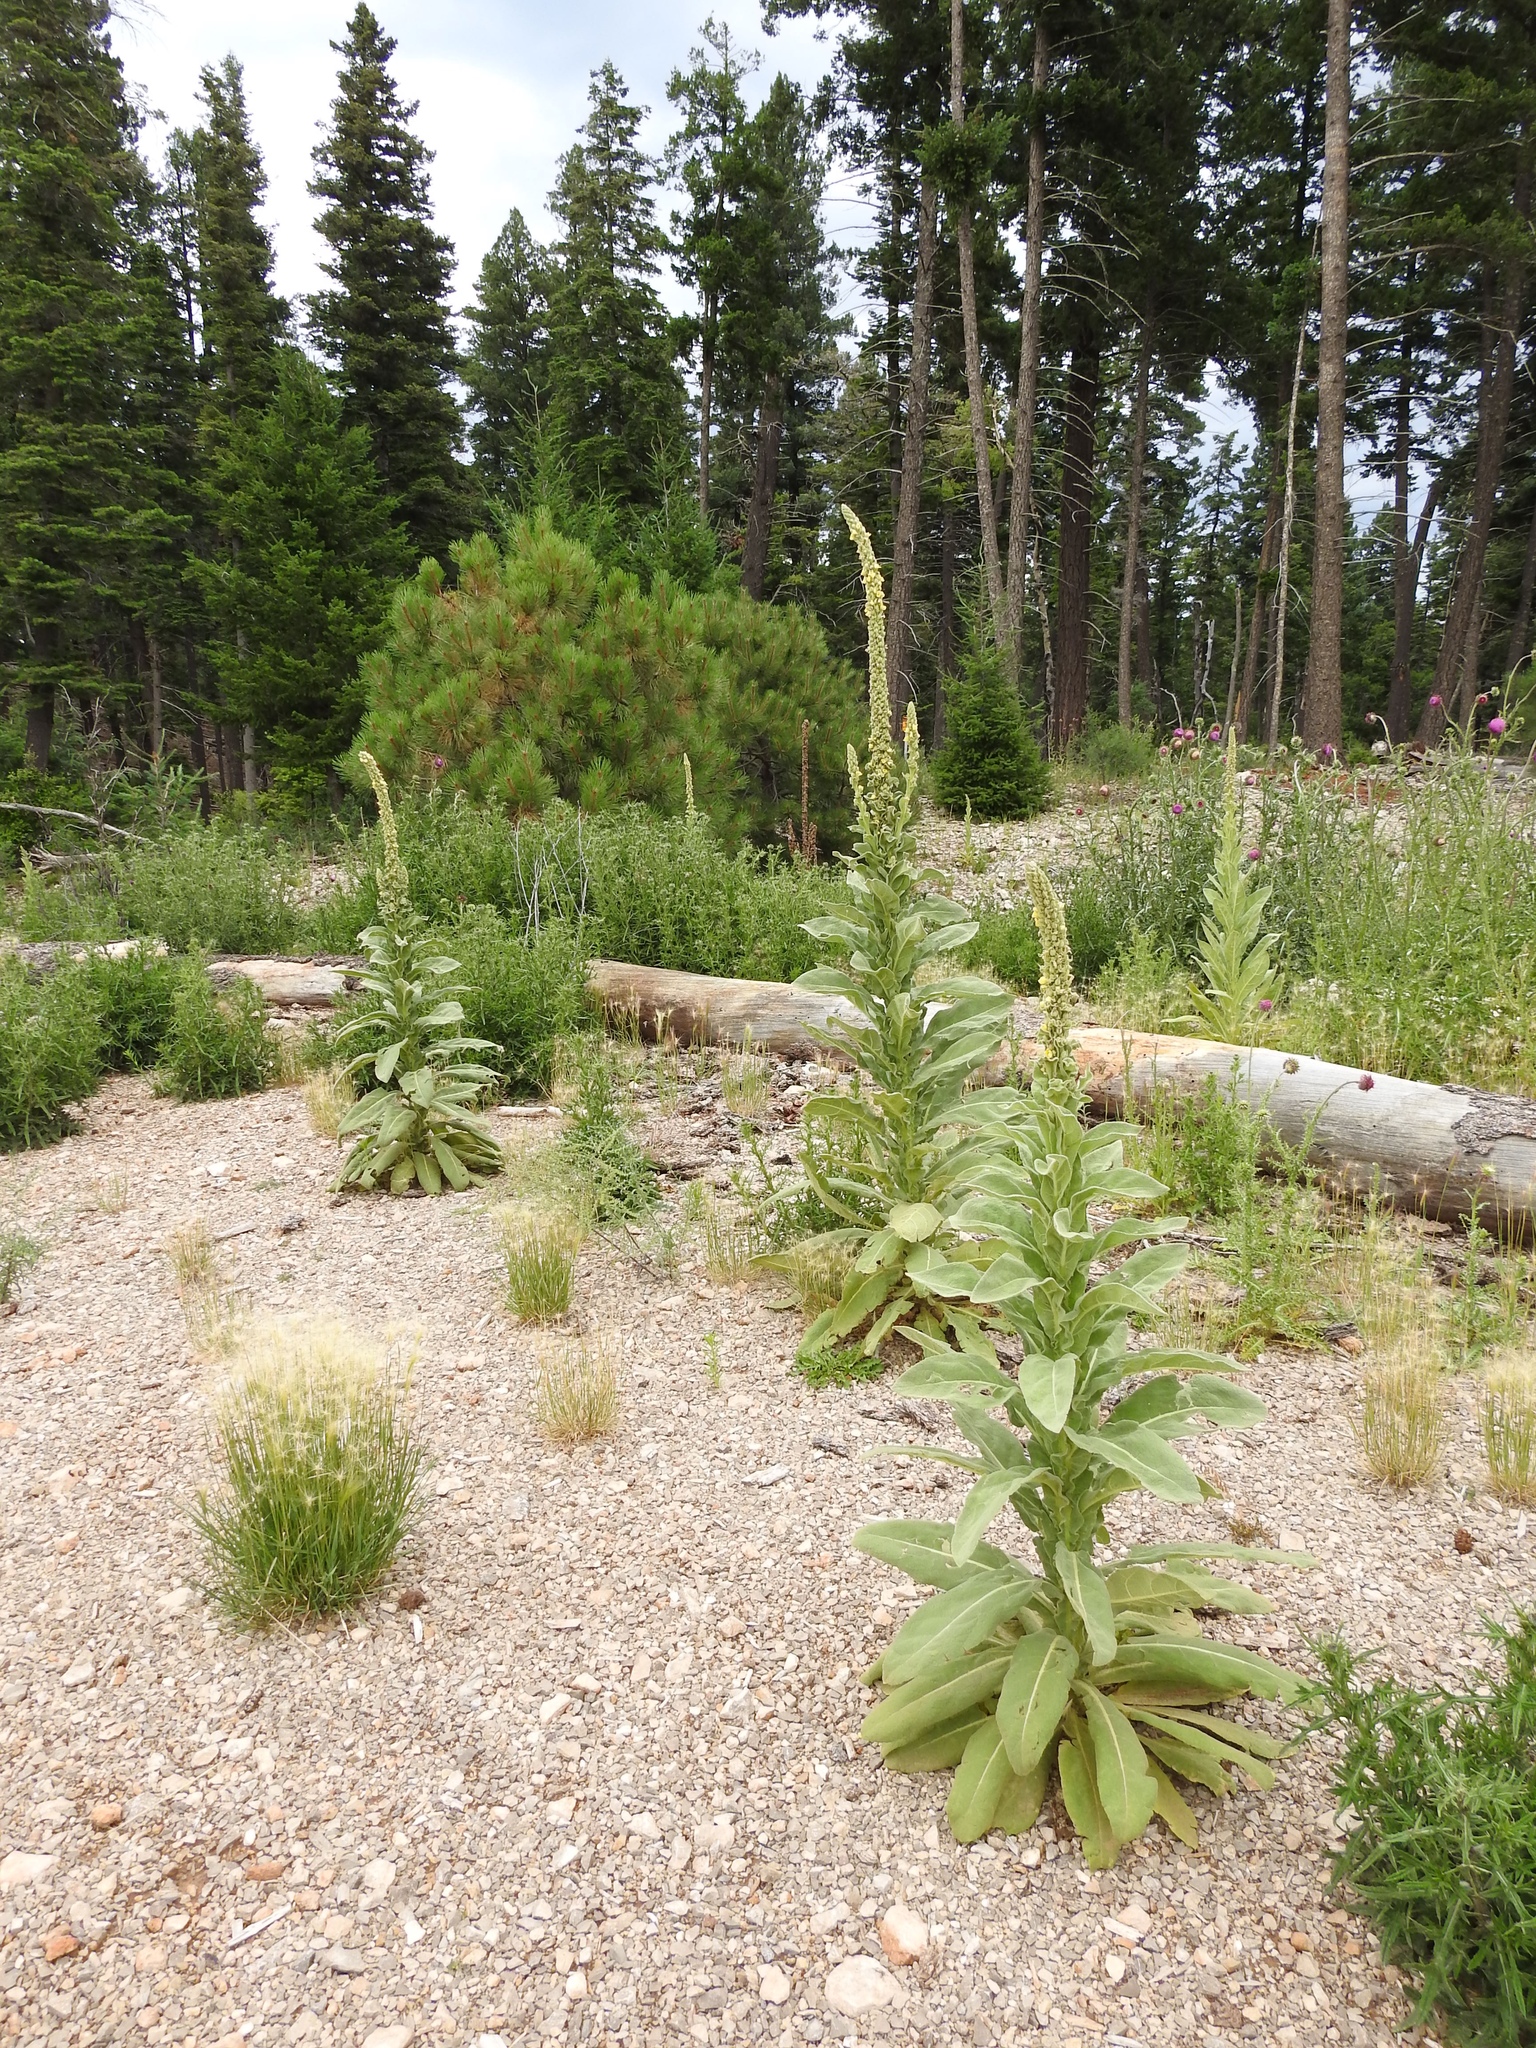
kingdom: Plantae
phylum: Tracheophyta
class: Magnoliopsida
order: Lamiales
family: Scrophulariaceae
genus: Verbascum
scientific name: Verbascum thapsus
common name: Common mullein
